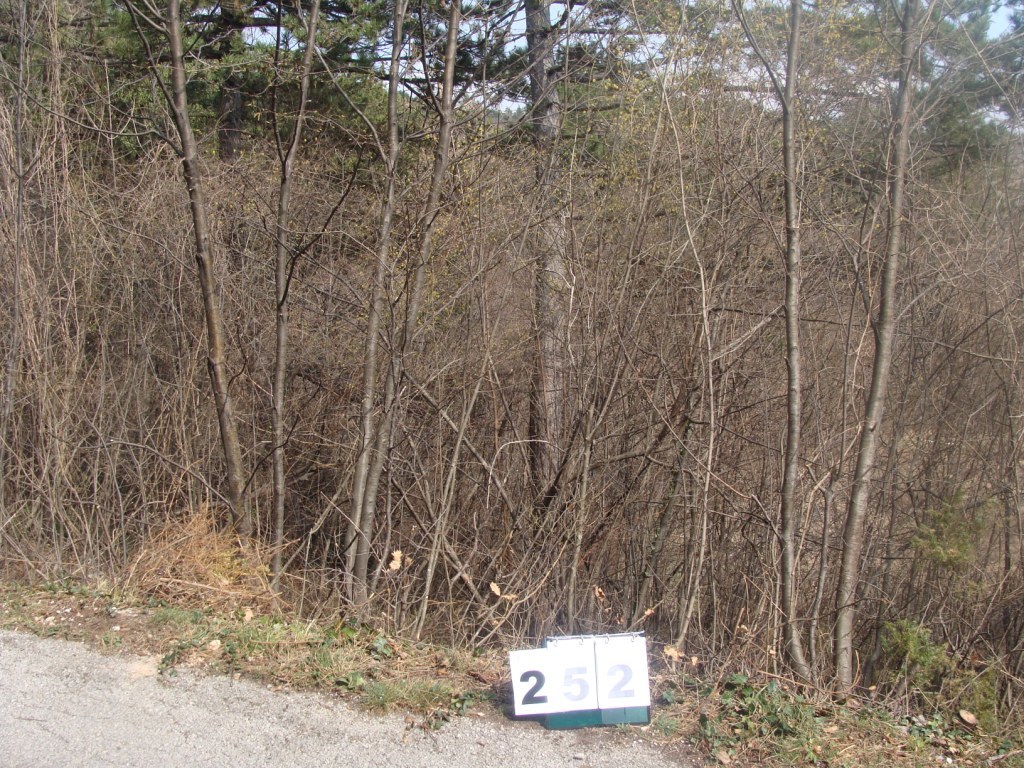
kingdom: Plantae
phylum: Tracheophyta
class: Magnoliopsida
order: Cornales
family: Cornaceae
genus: Cornus
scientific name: Cornus mas
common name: Cornelian-cherry
